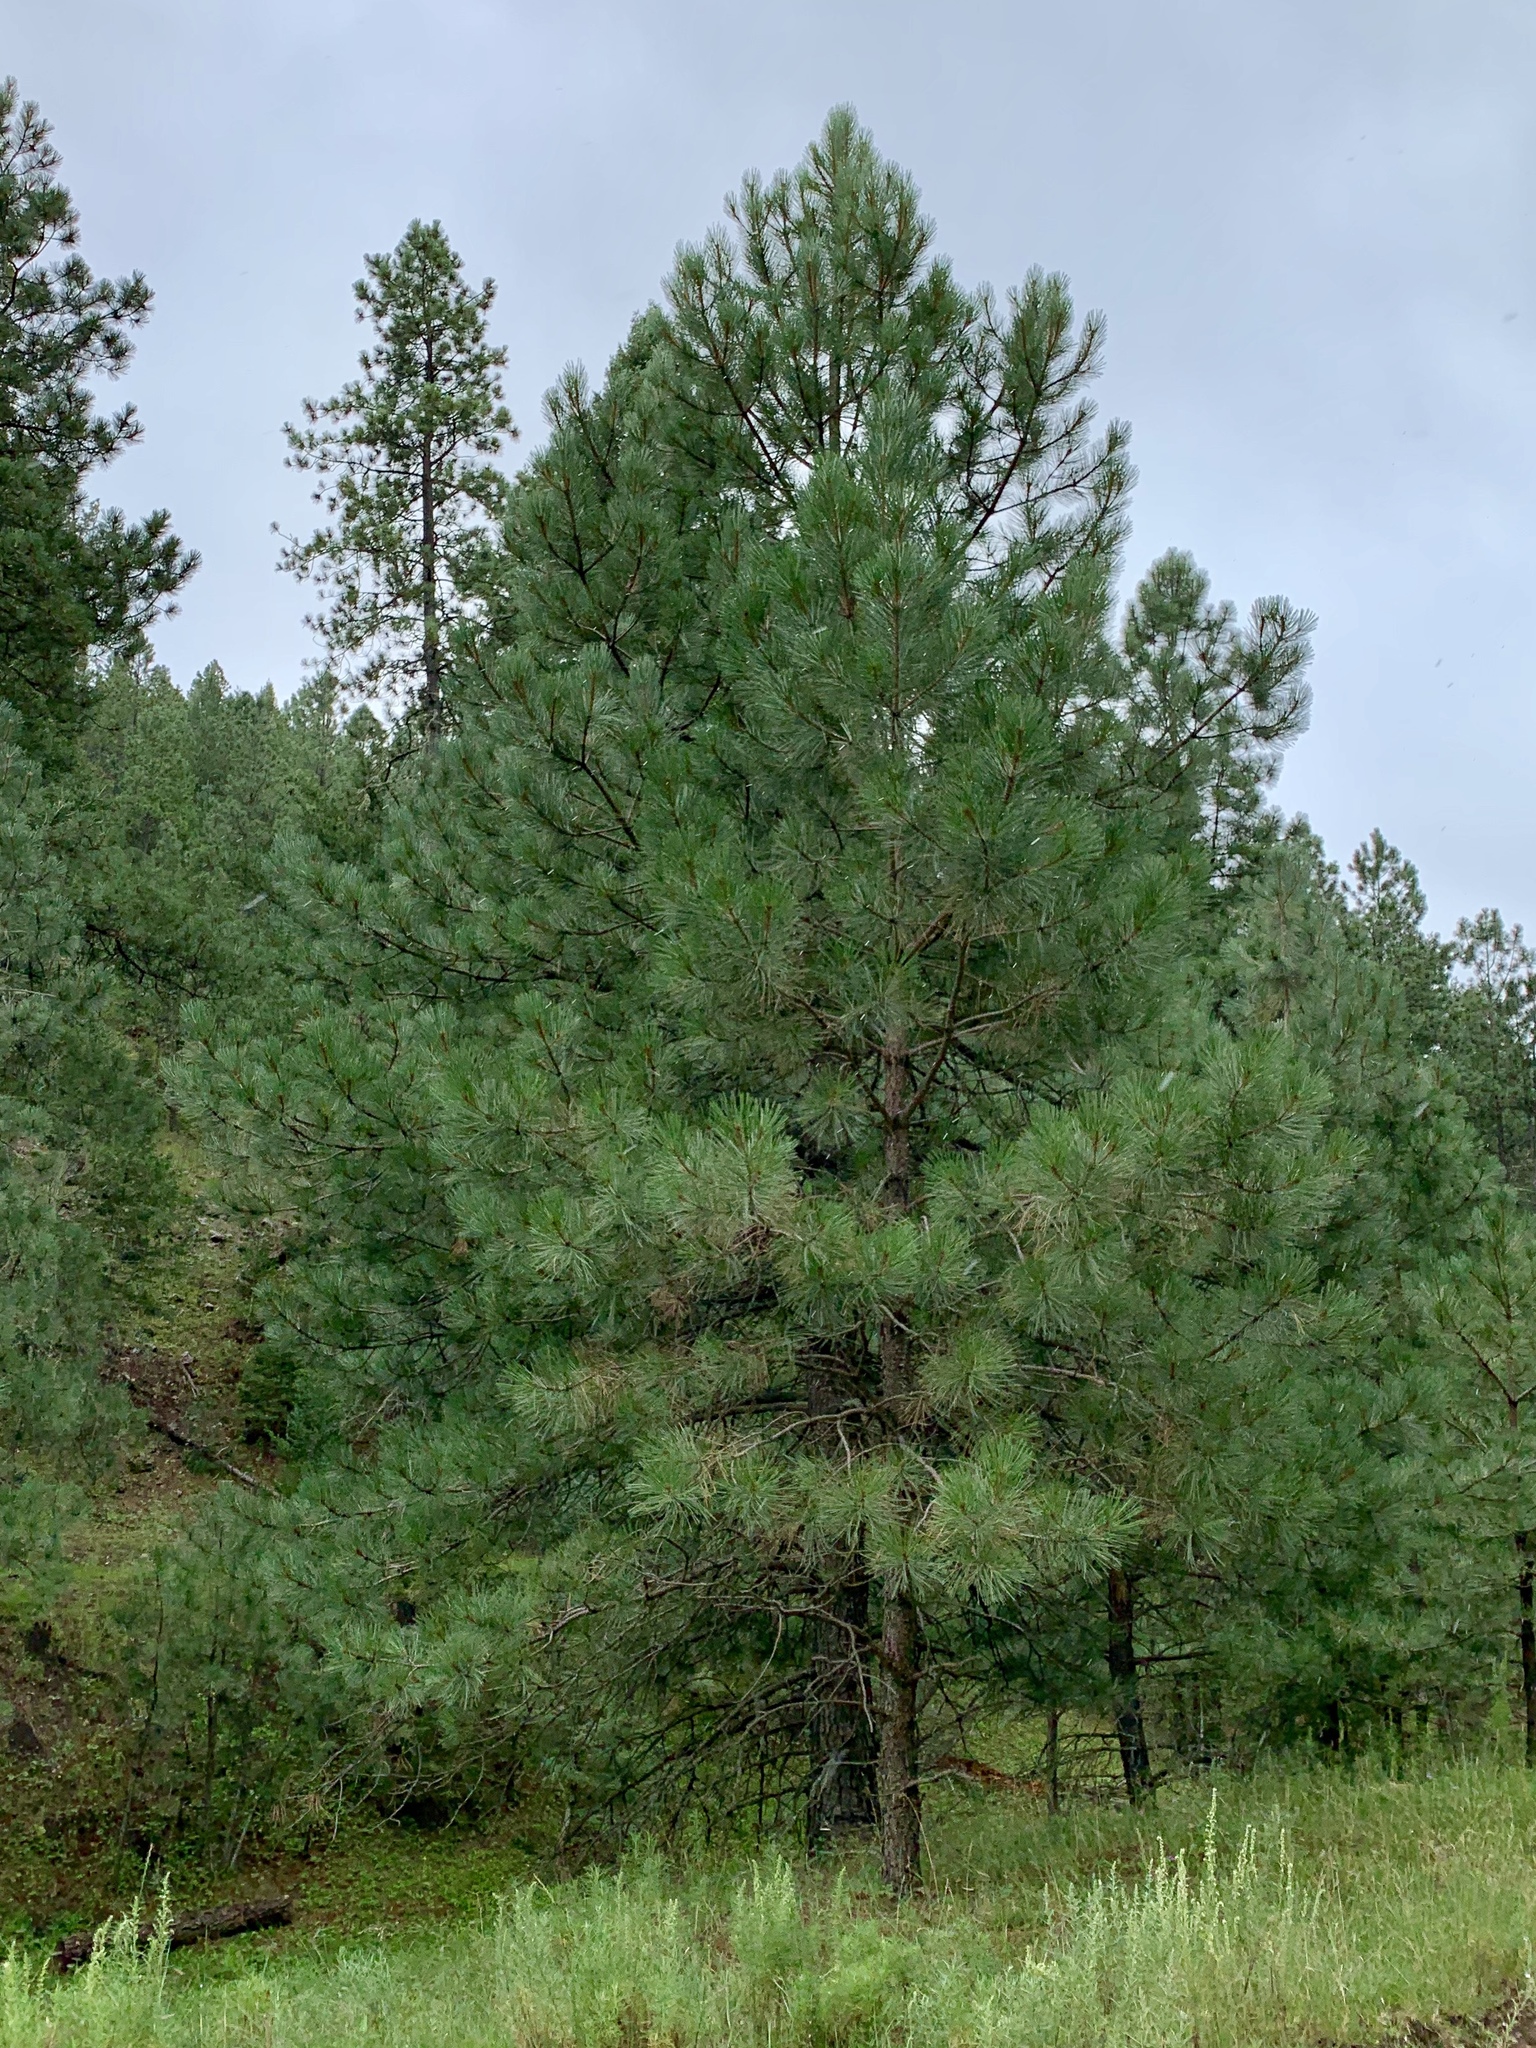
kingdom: Plantae
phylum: Tracheophyta
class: Pinopsida
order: Pinales
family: Pinaceae
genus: Pinus
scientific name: Pinus ponderosa
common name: Western yellow-pine
